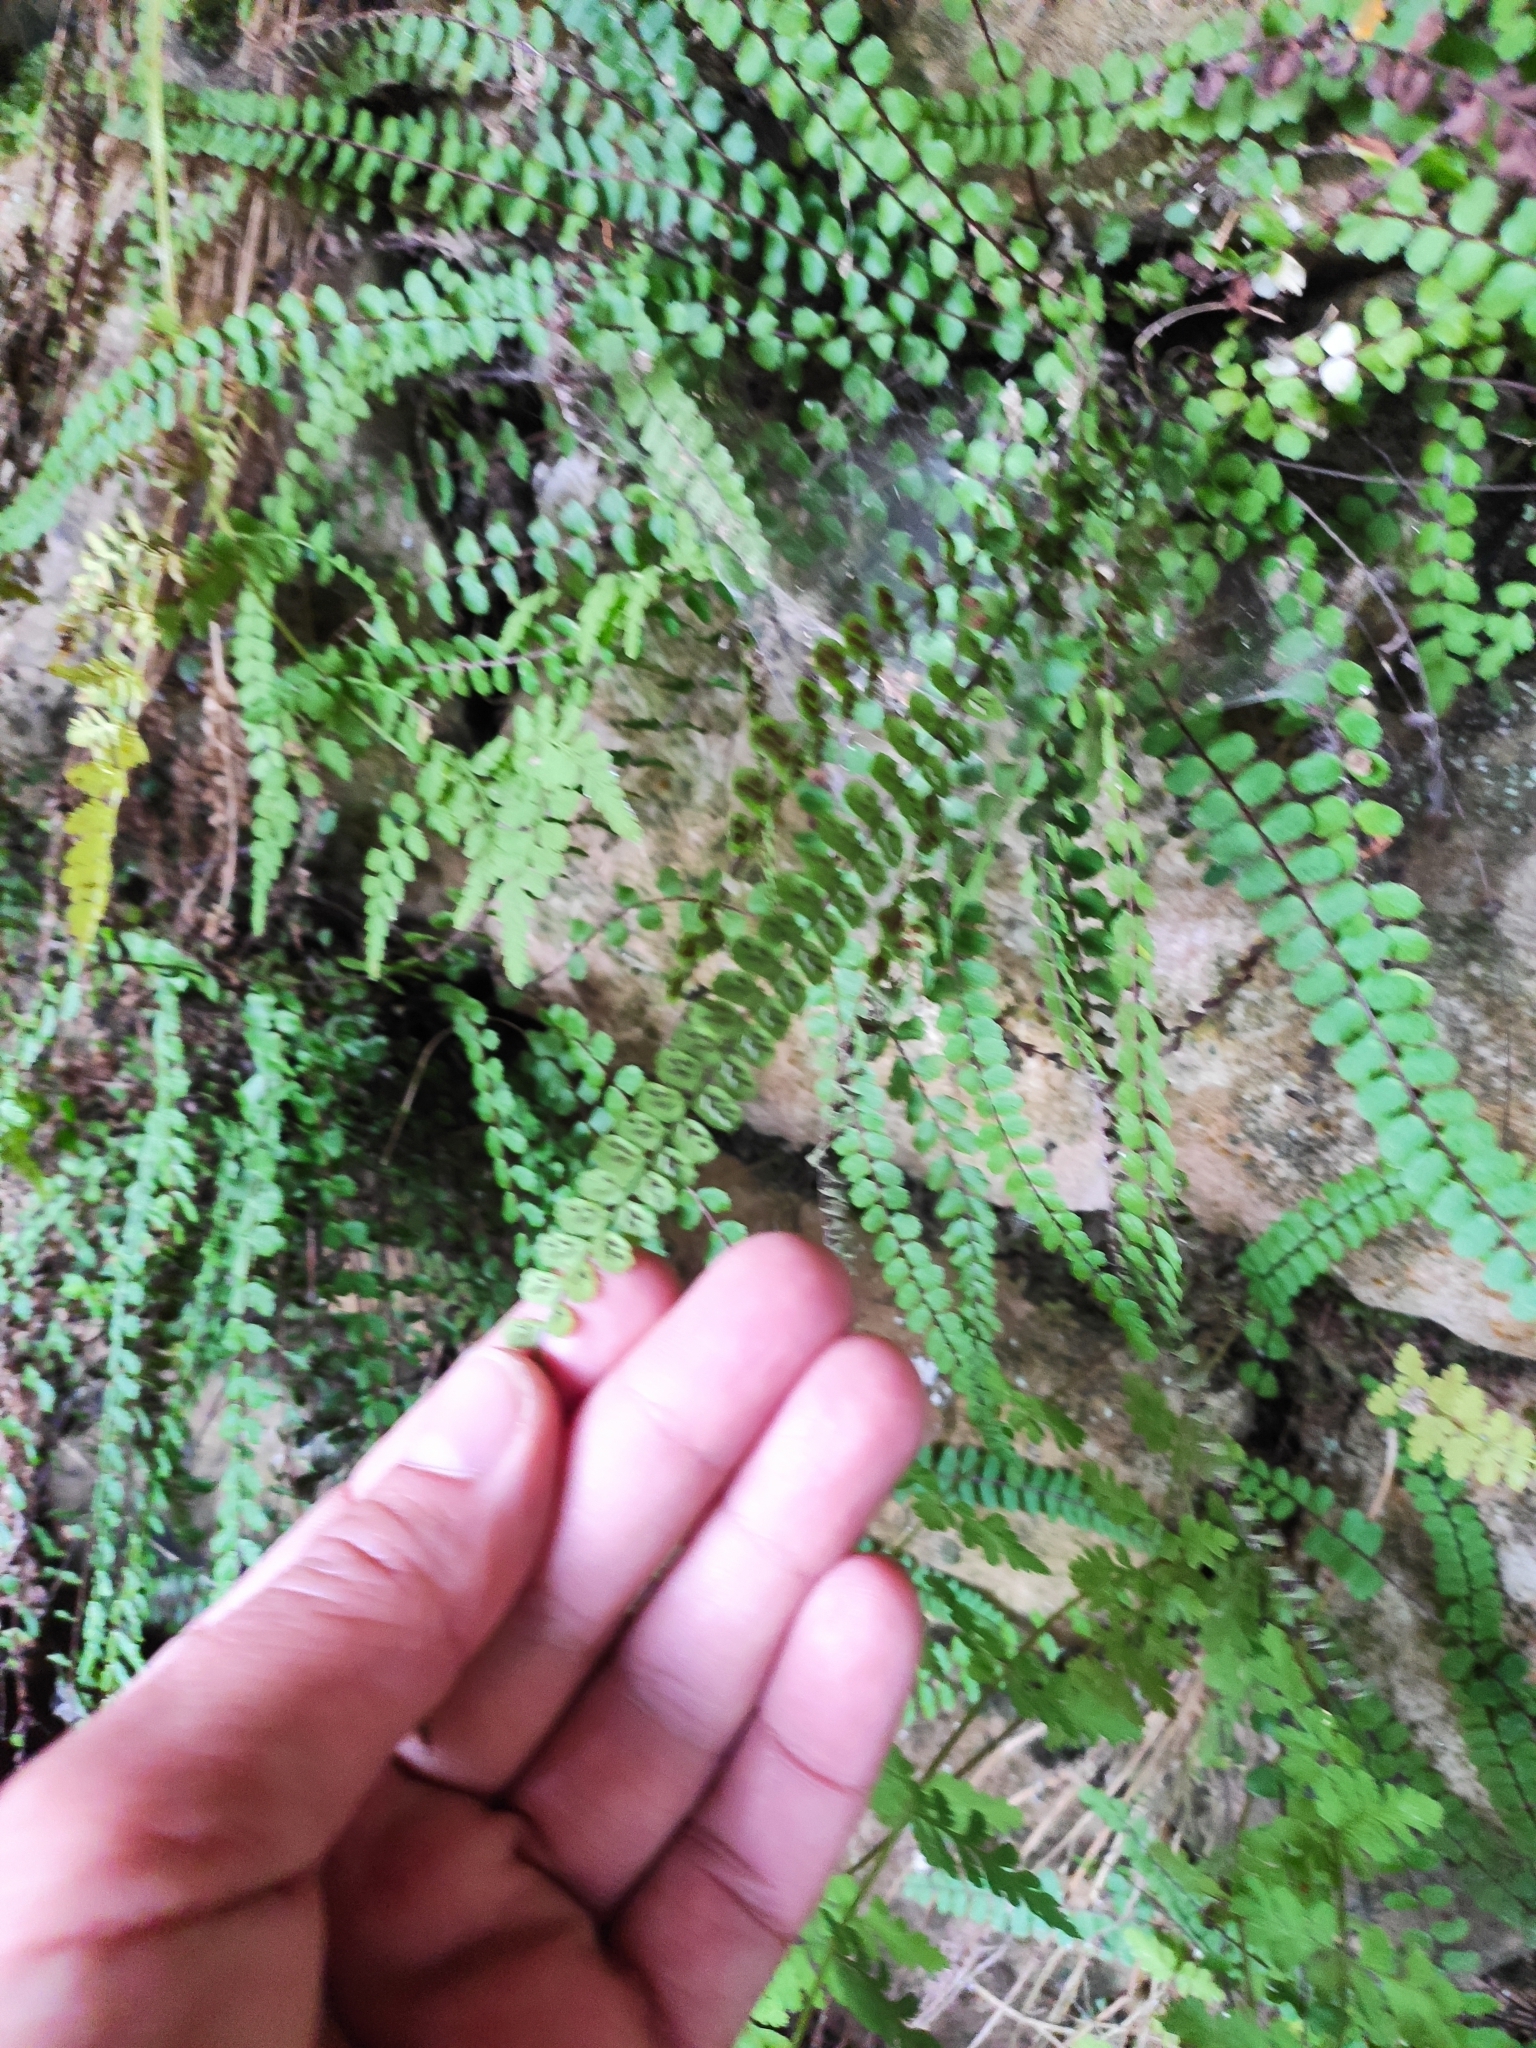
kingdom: Plantae
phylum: Tracheophyta
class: Polypodiopsida
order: Polypodiales
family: Aspleniaceae
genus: Asplenium
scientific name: Asplenium trichomanes
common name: Maidenhair spleenwort
